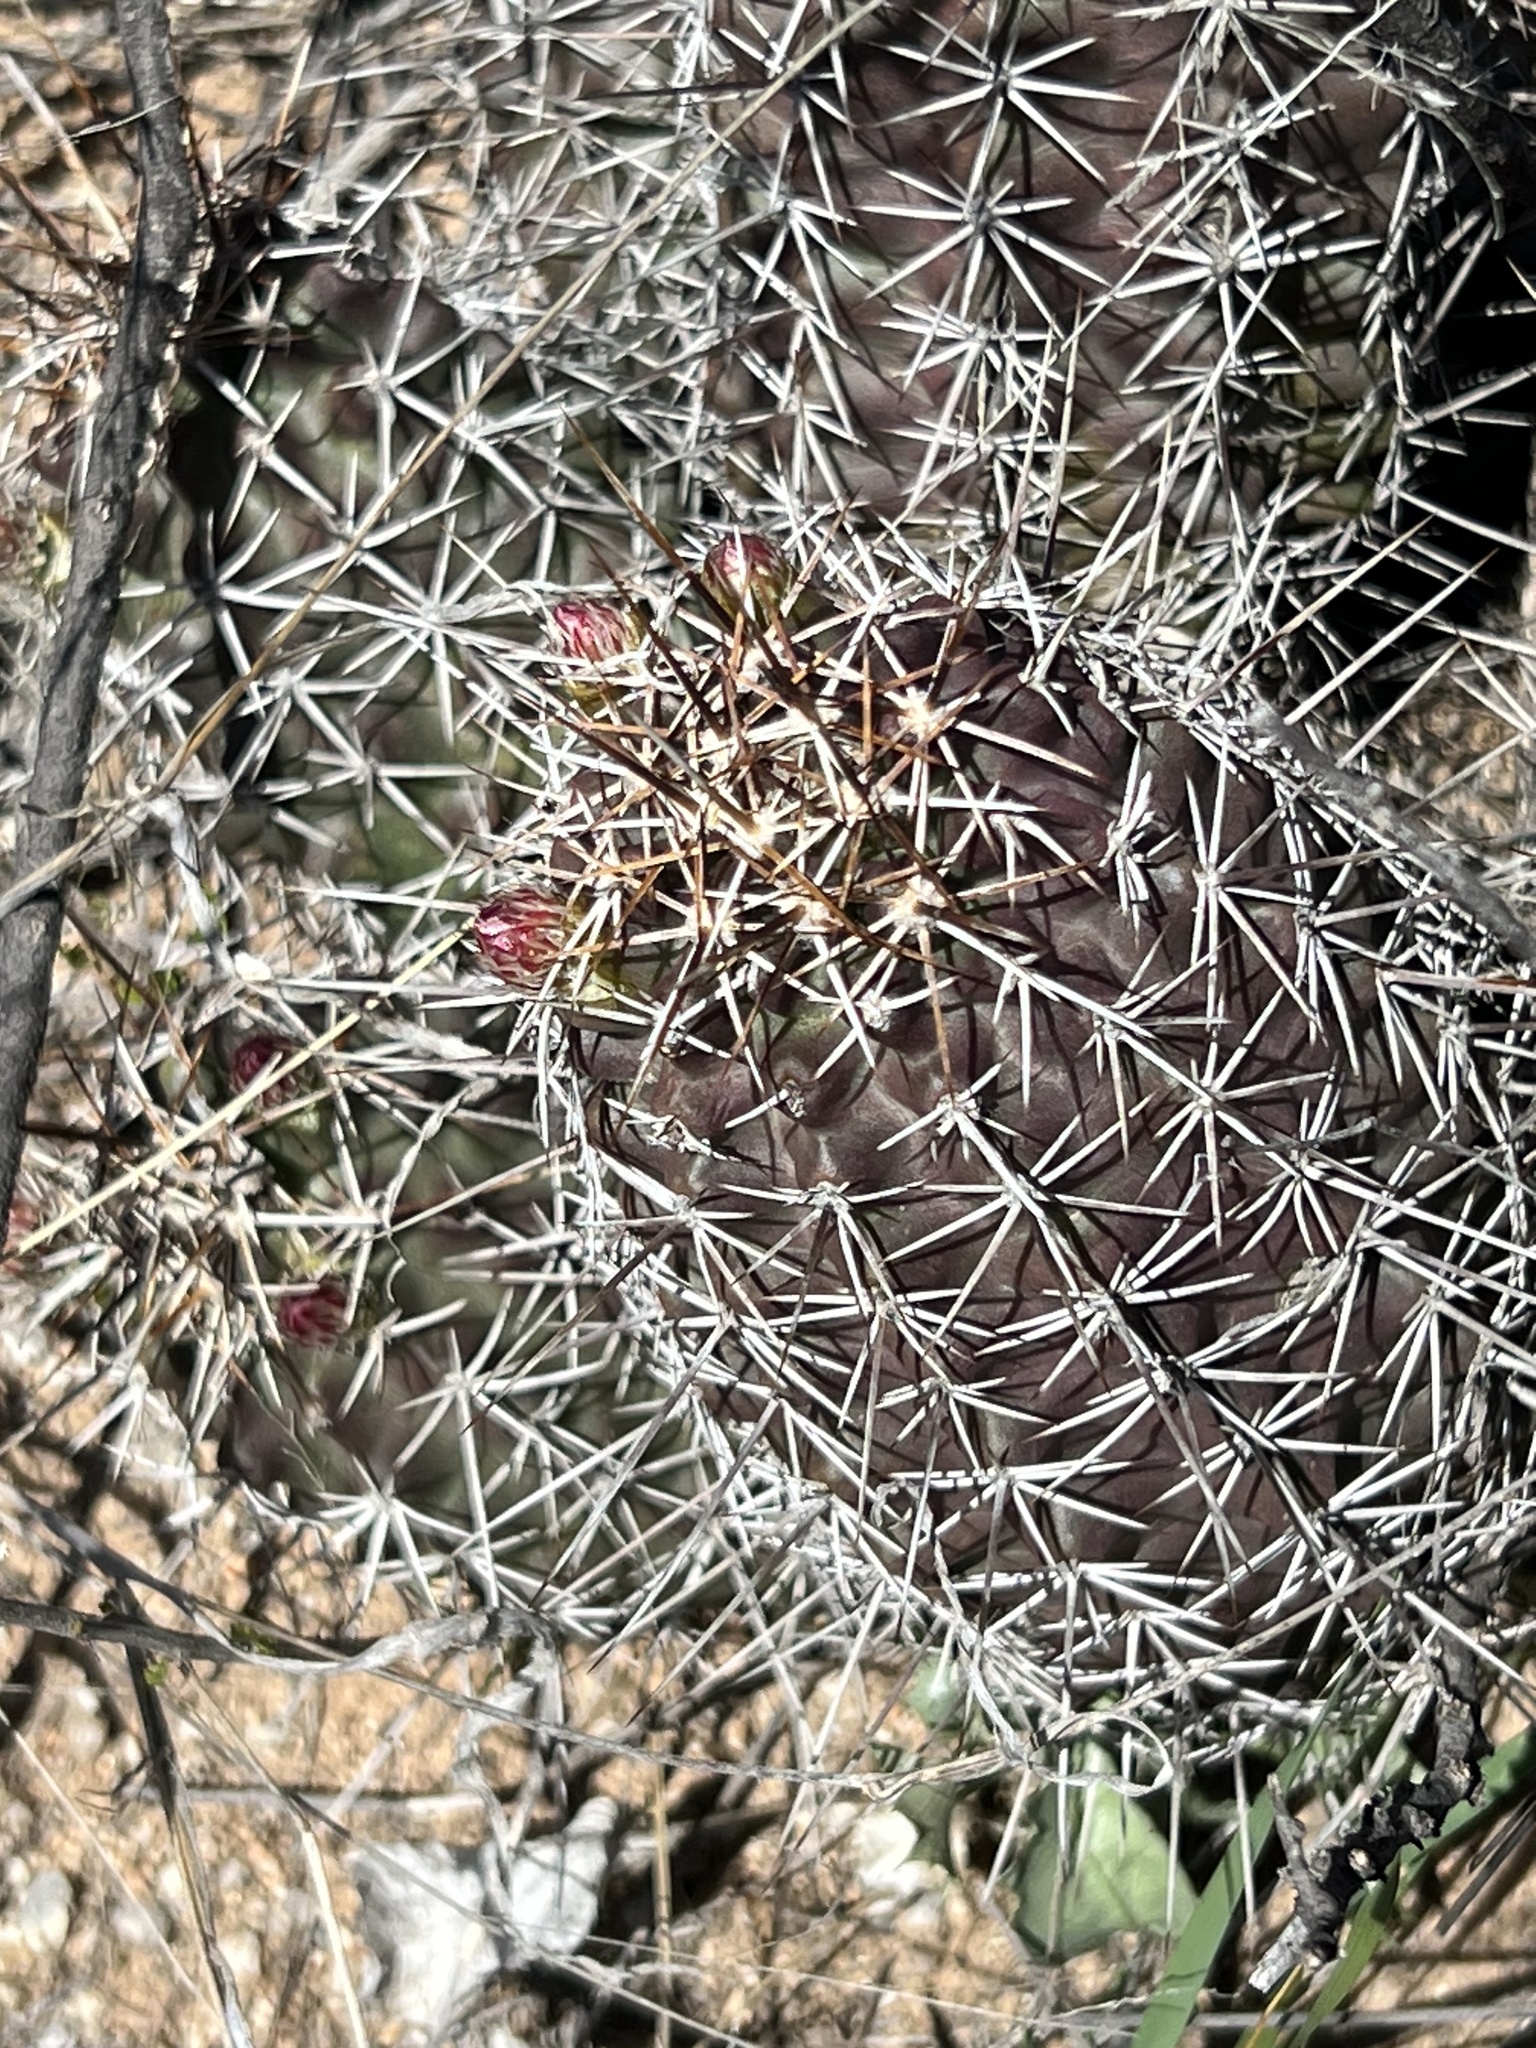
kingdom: Plantae
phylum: Tracheophyta
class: Magnoliopsida
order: Caryophyllales
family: Cactaceae
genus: Echinocereus
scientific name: Echinocereus fendleri
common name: Fendler's hedgehog cactus
